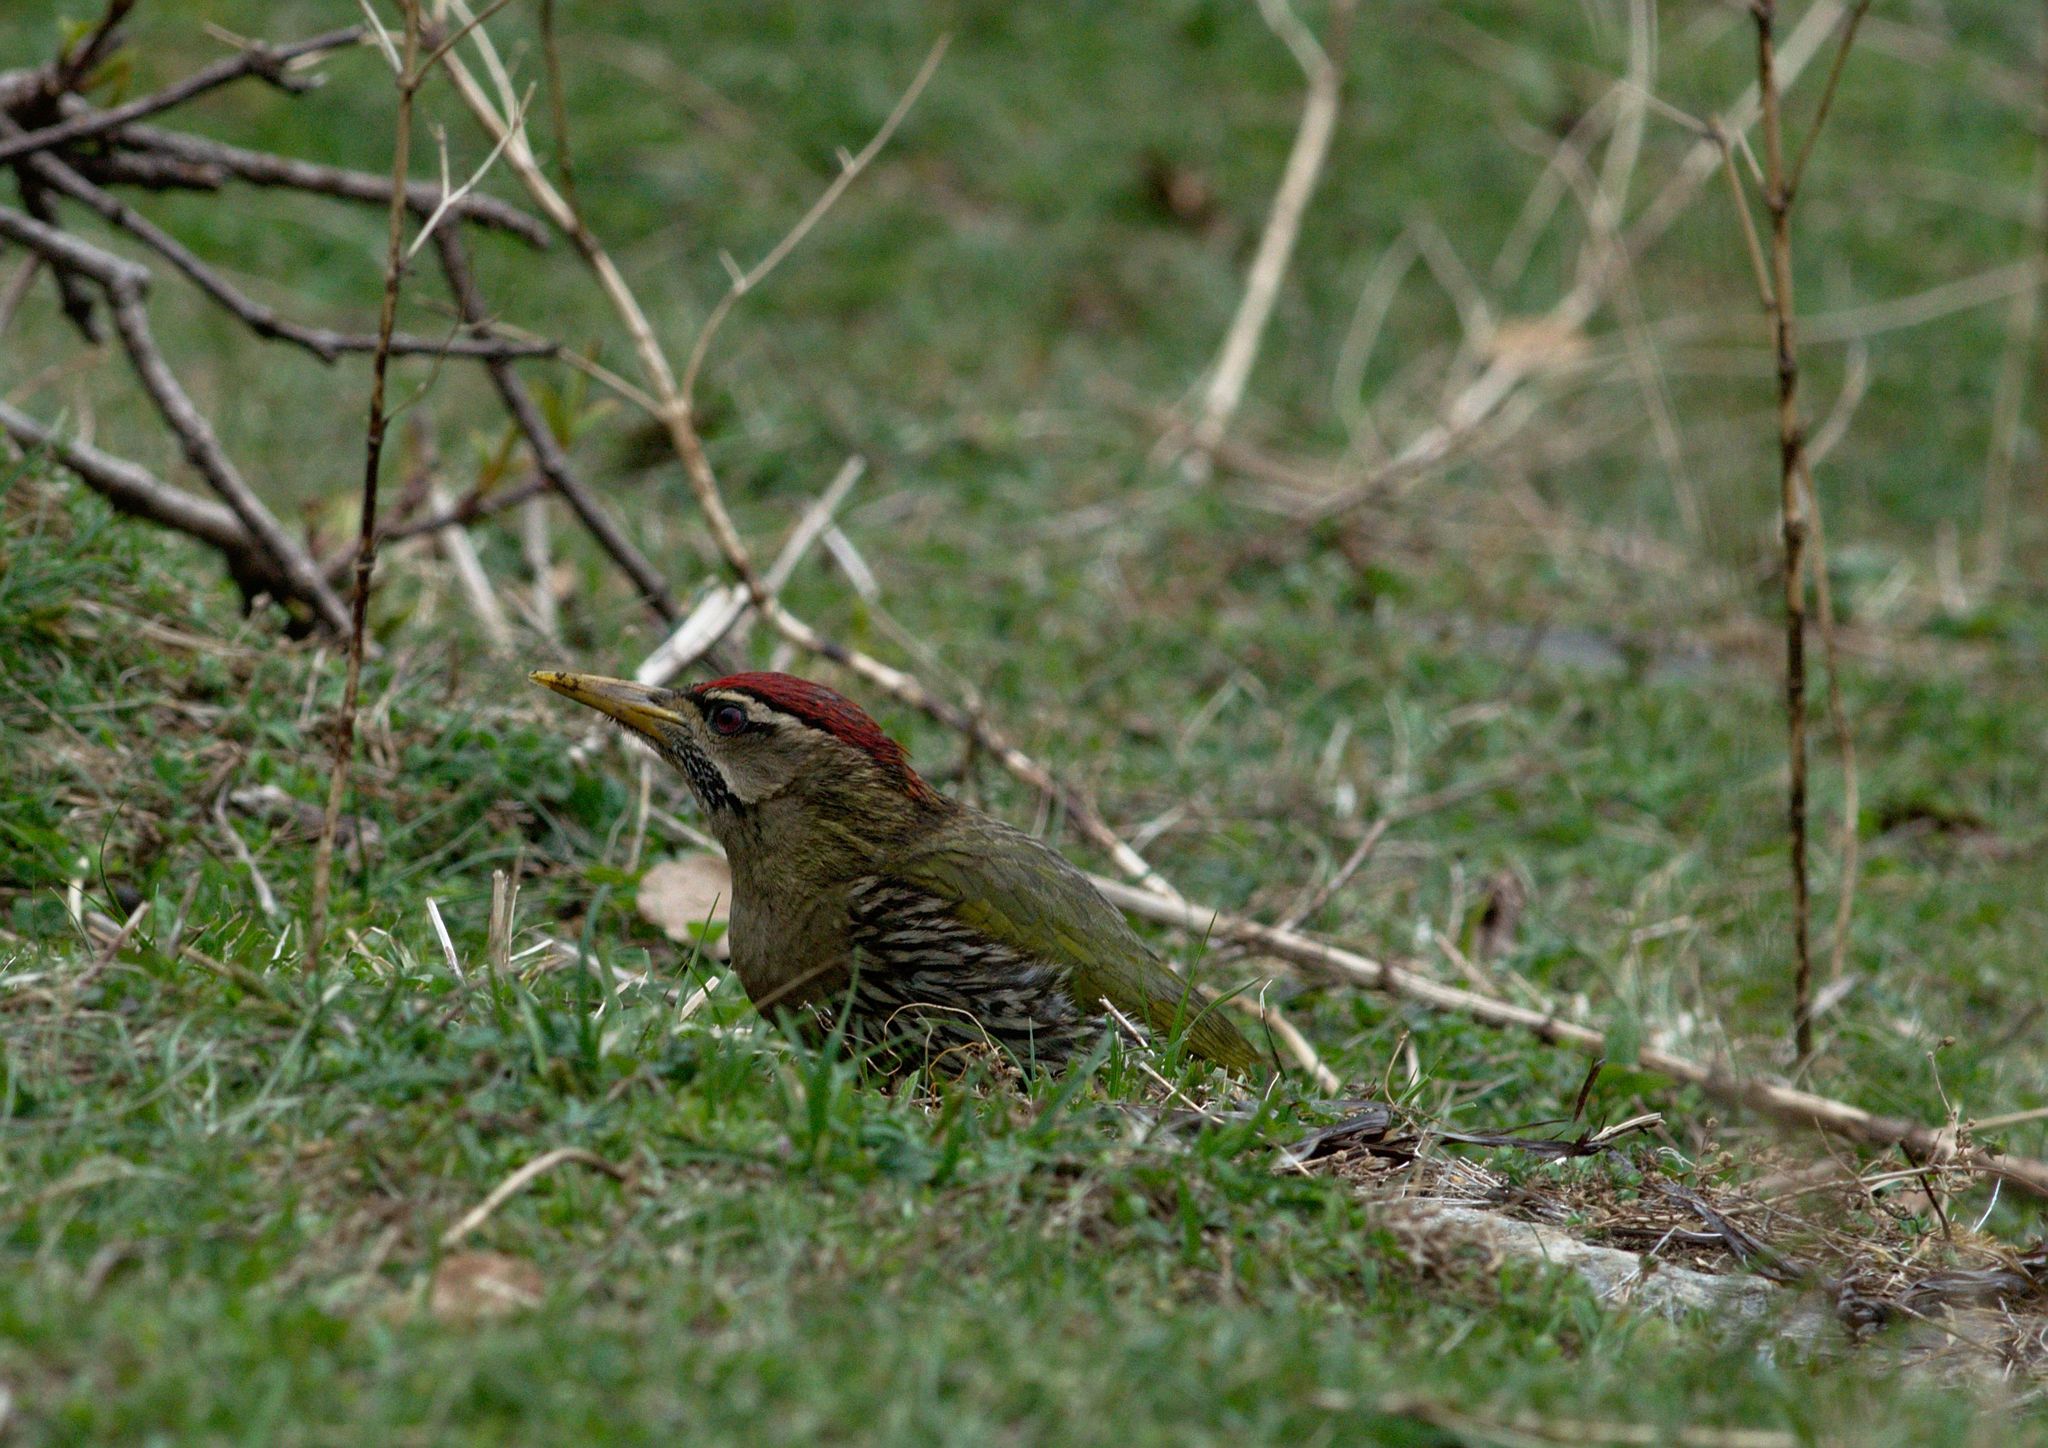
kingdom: Animalia
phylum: Chordata
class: Aves
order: Piciformes
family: Picidae
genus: Picus
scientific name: Picus squamatus
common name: Scaly-bellied woodpecker
